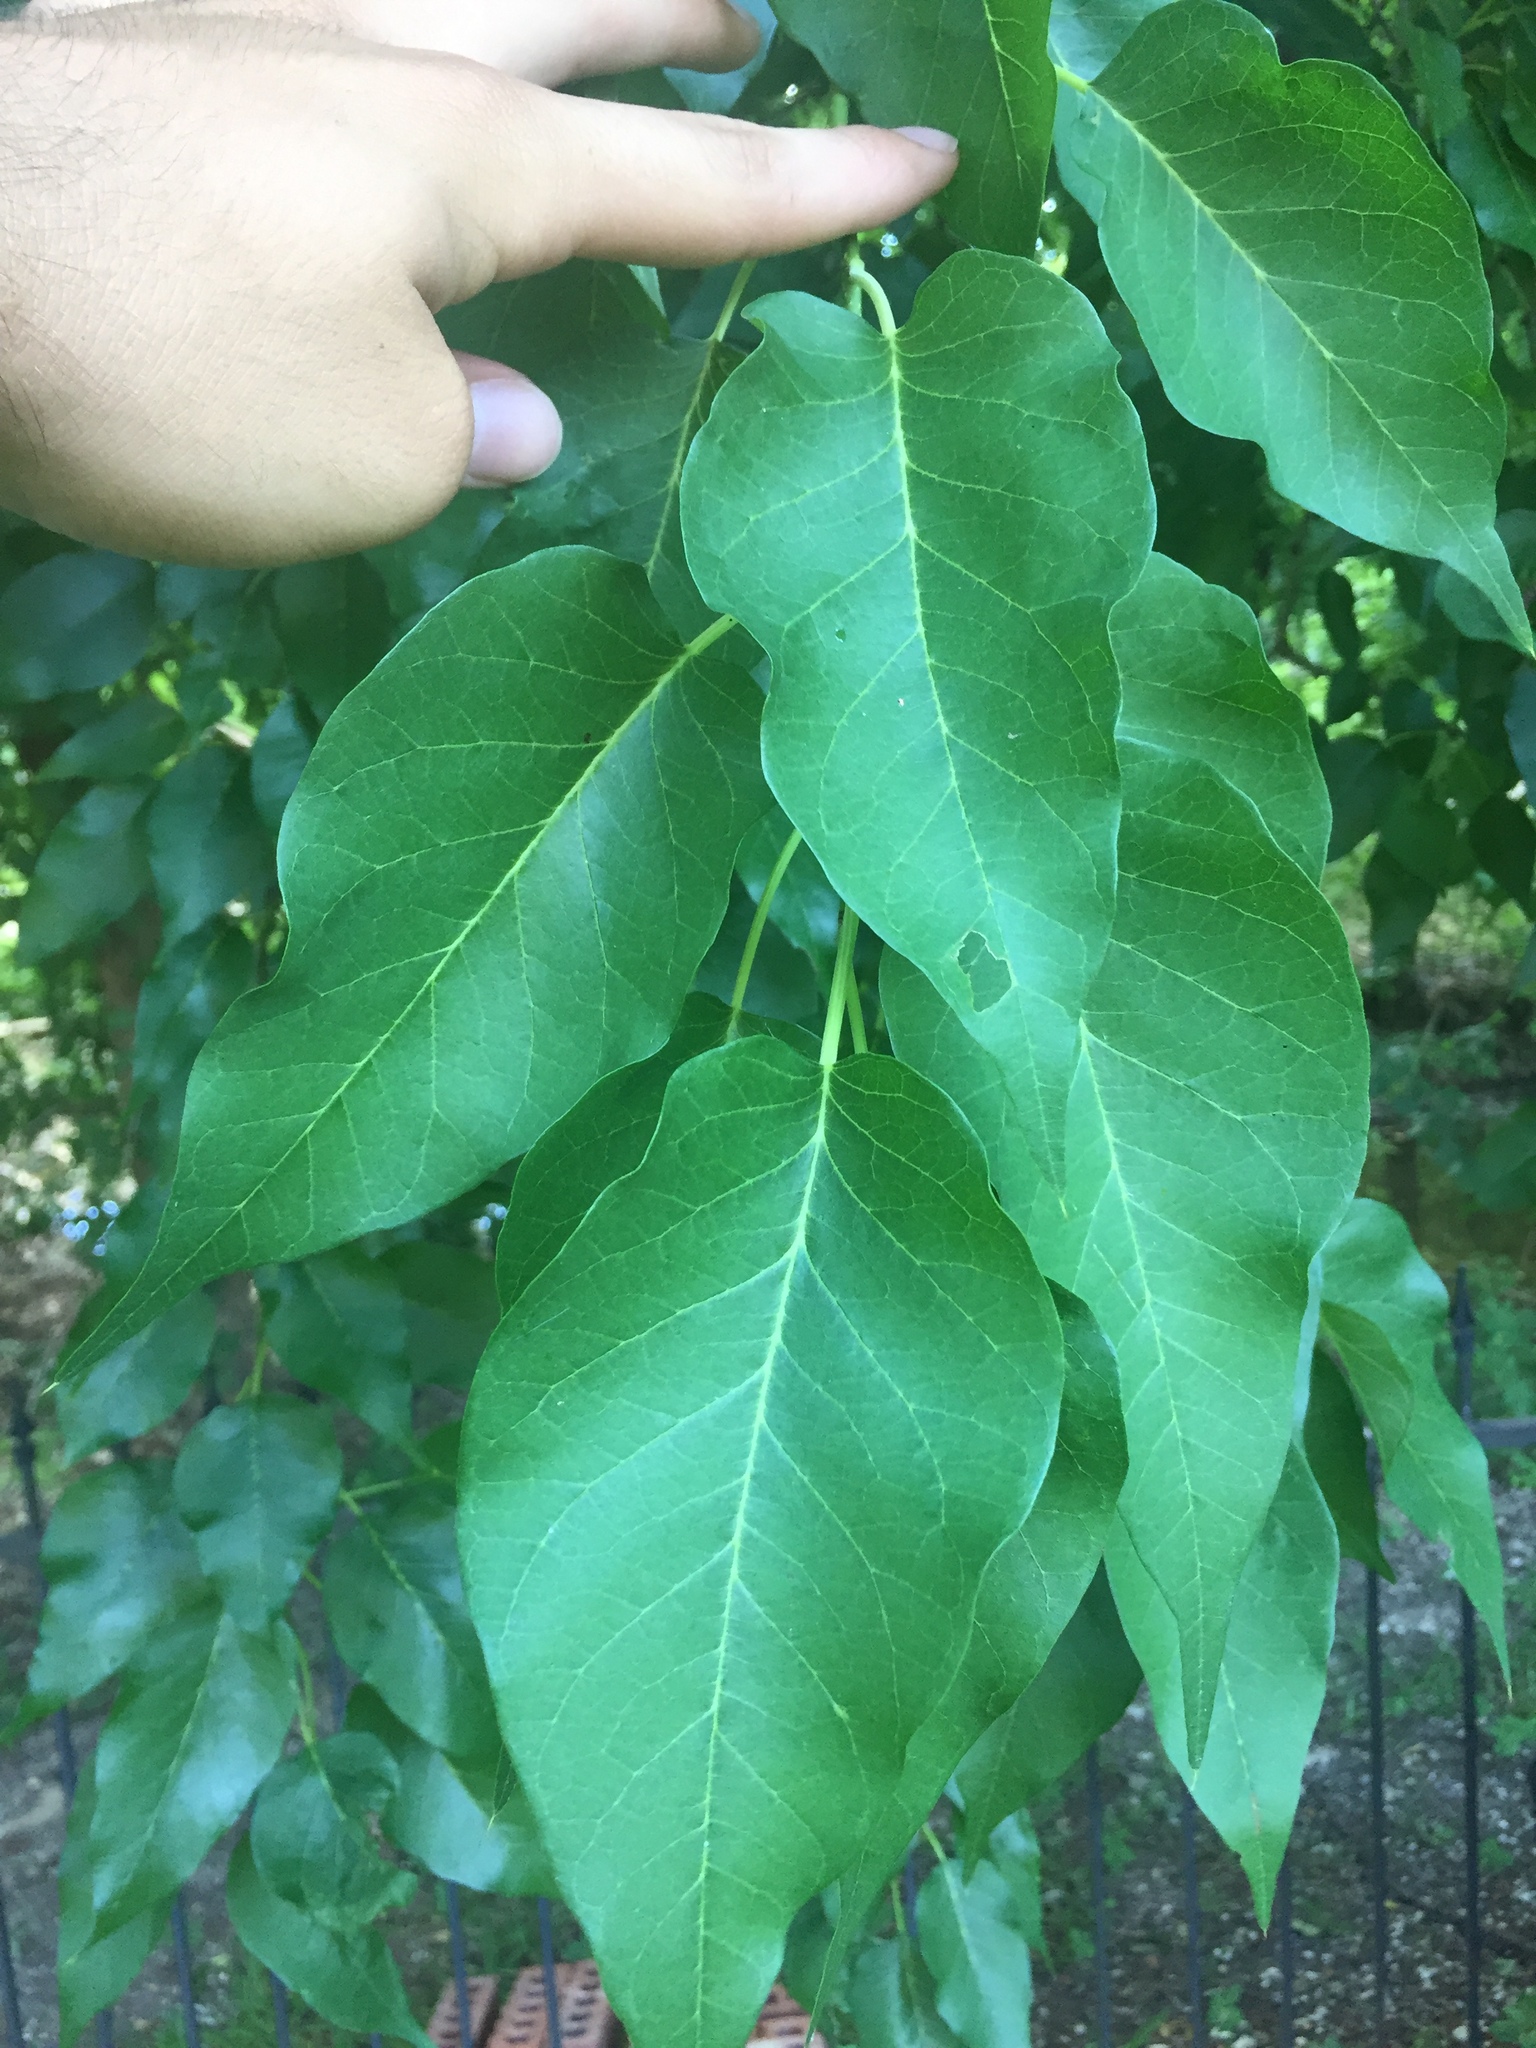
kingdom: Plantae
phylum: Tracheophyta
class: Magnoliopsida
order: Rosales
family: Moraceae
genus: Maclura
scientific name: Maclura pomifera
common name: Osage-orange
